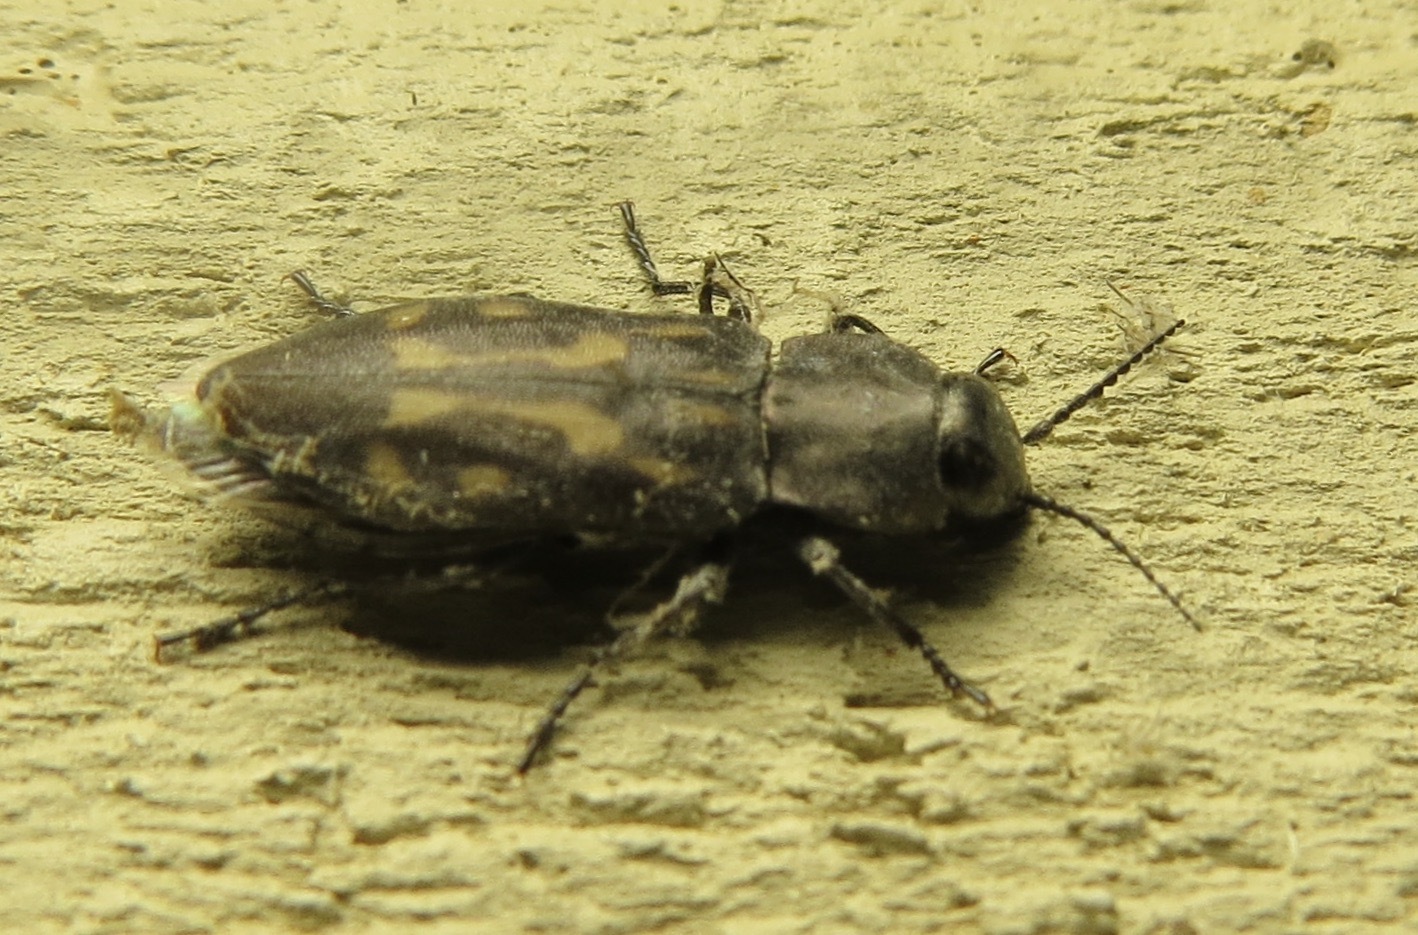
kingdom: Animalia
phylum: Arthropoda
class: Insecta
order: Coleoptera
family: Buprestidae
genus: Melanophila
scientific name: Melanophila consputa
